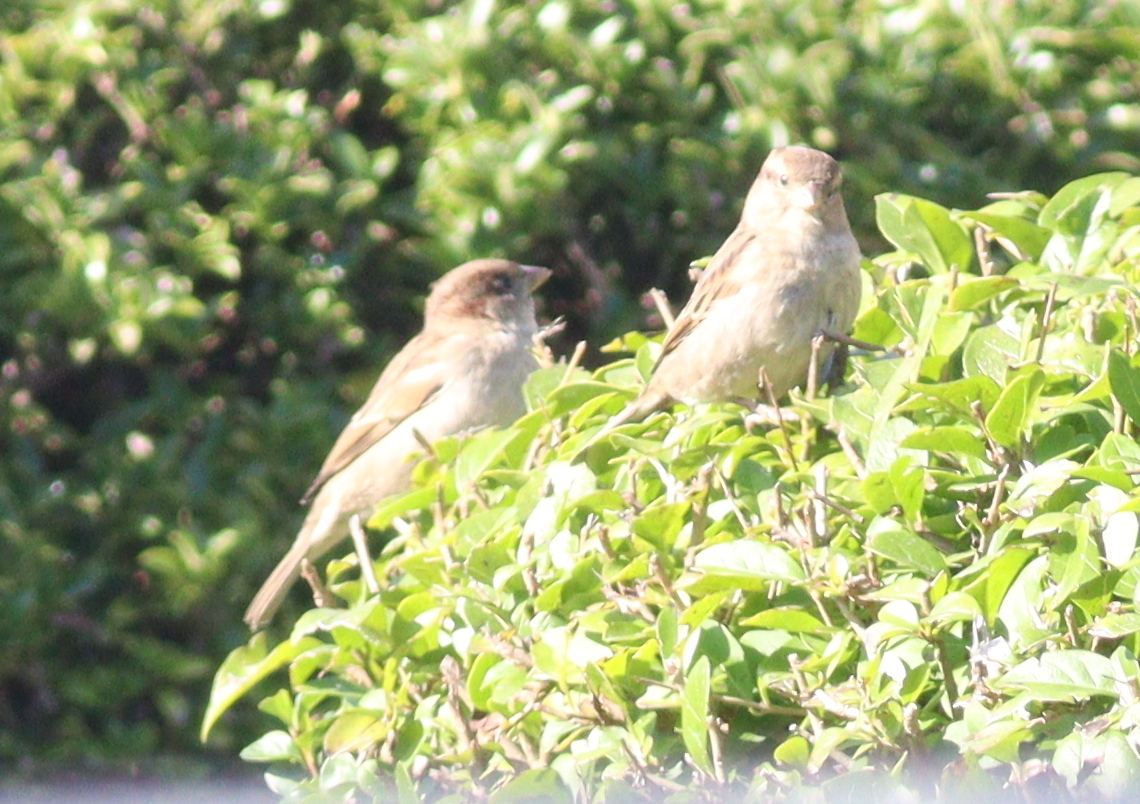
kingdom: Animalia
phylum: Chordata
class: Aves
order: Passeriformes
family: Passeridae
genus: Passer
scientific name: Passer domesticus
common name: House sparrow
